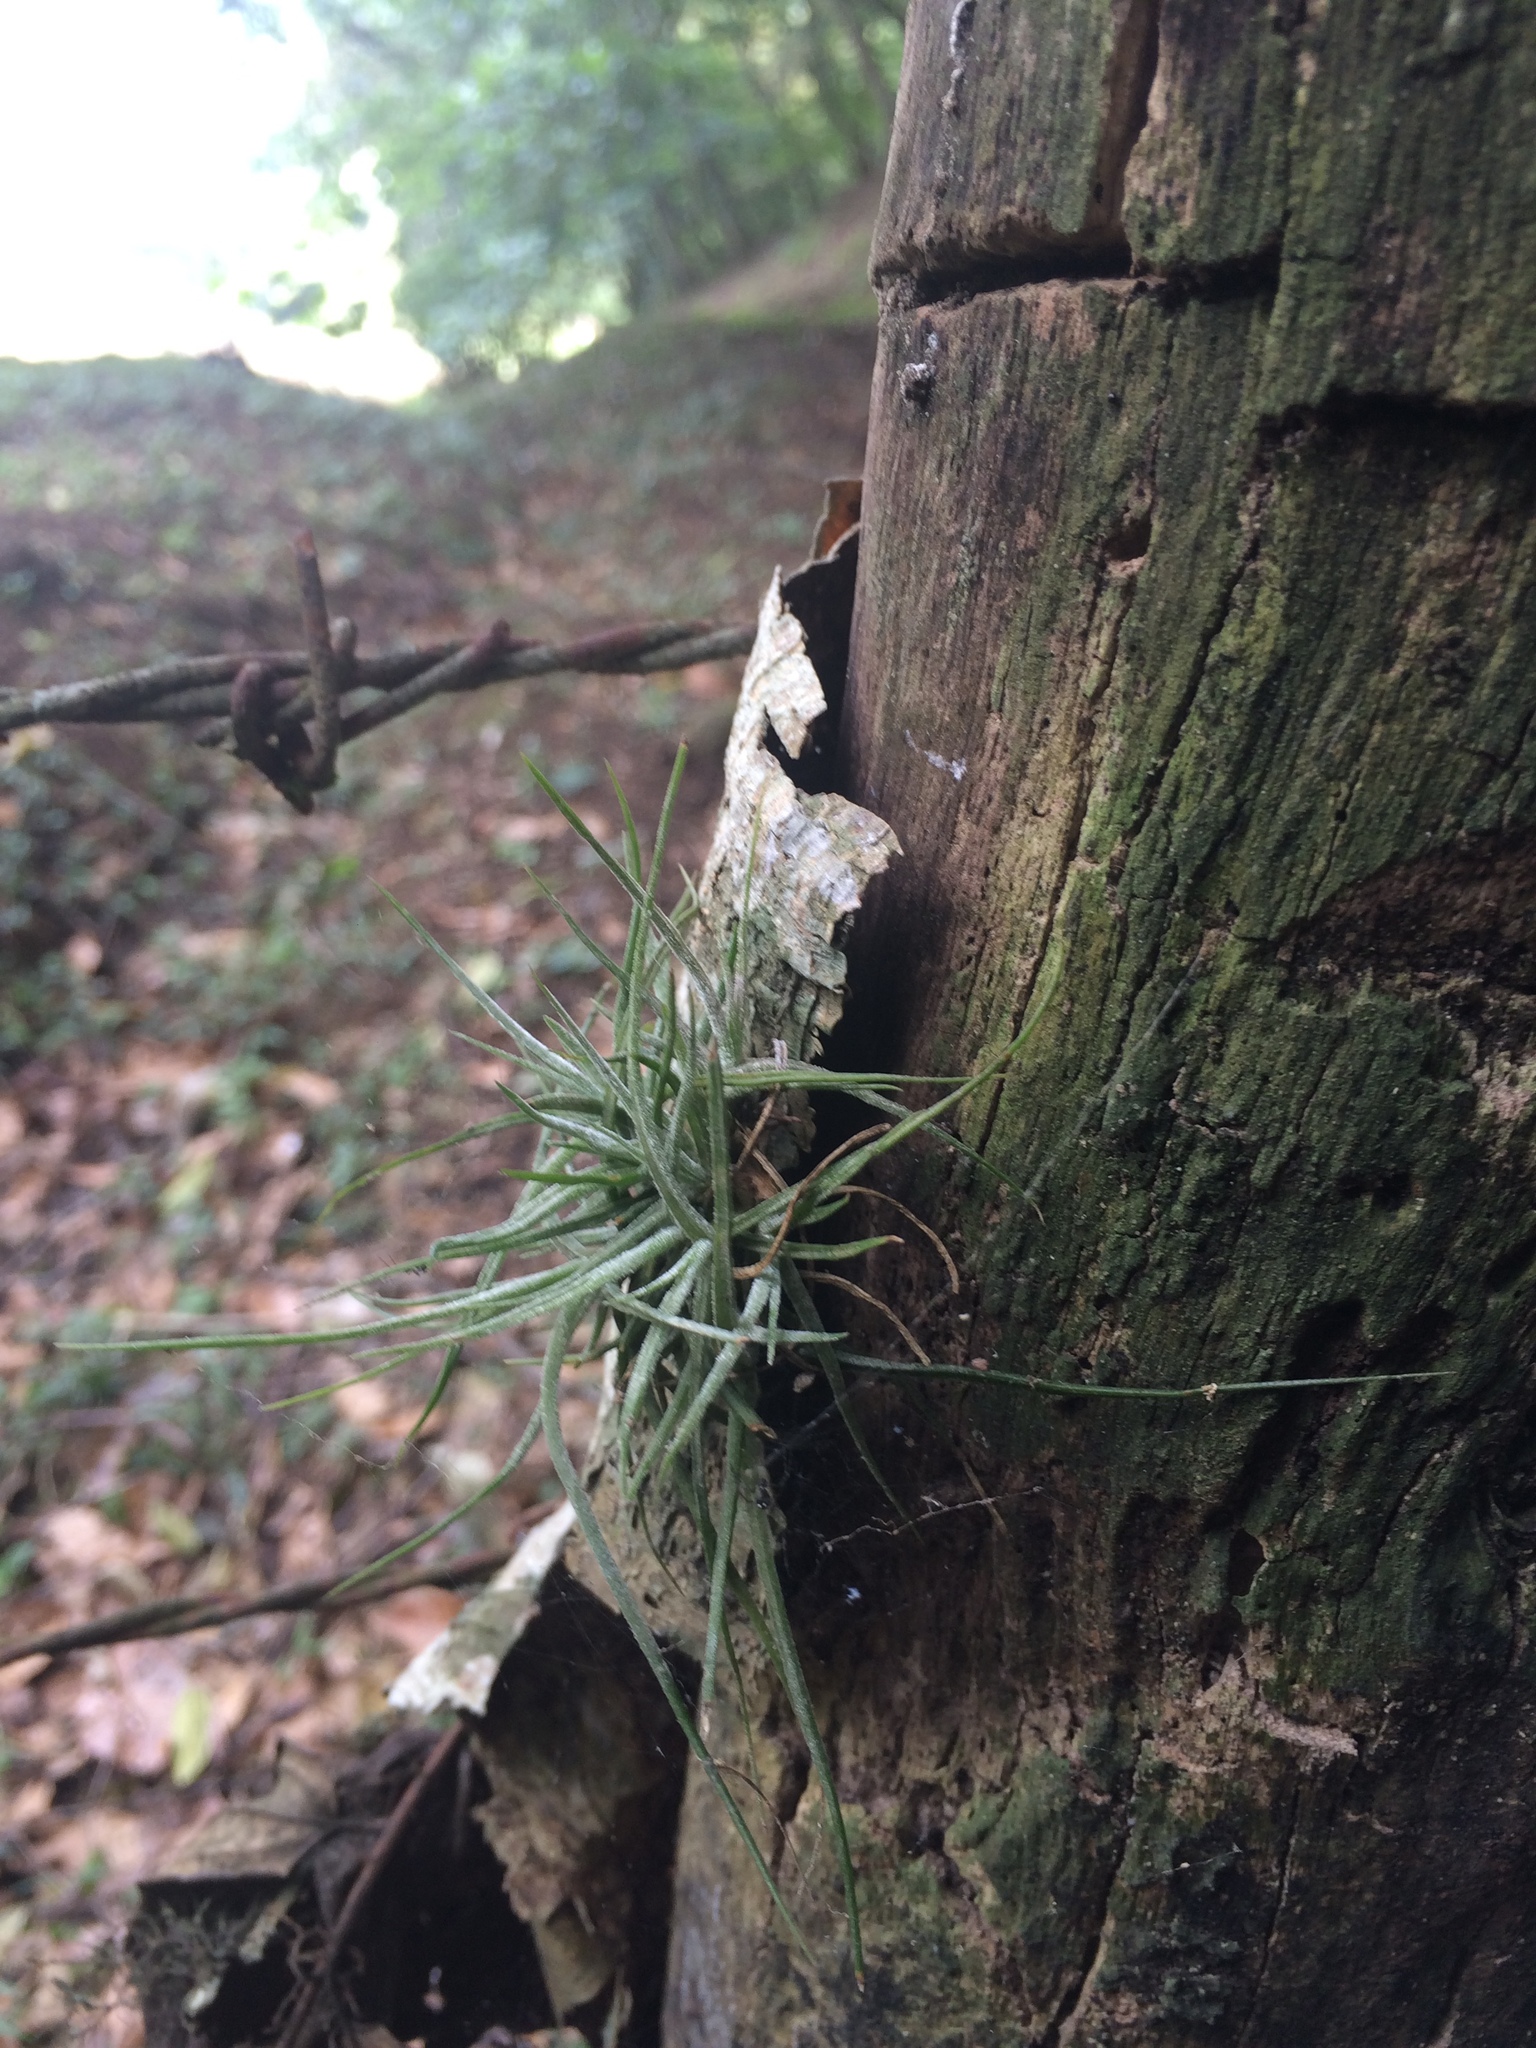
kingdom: Plantae
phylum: Tracheophyta
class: Liliopsida
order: Poales
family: Bromeliaceae
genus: Tillandsia
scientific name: Tillandsia schiedeana
